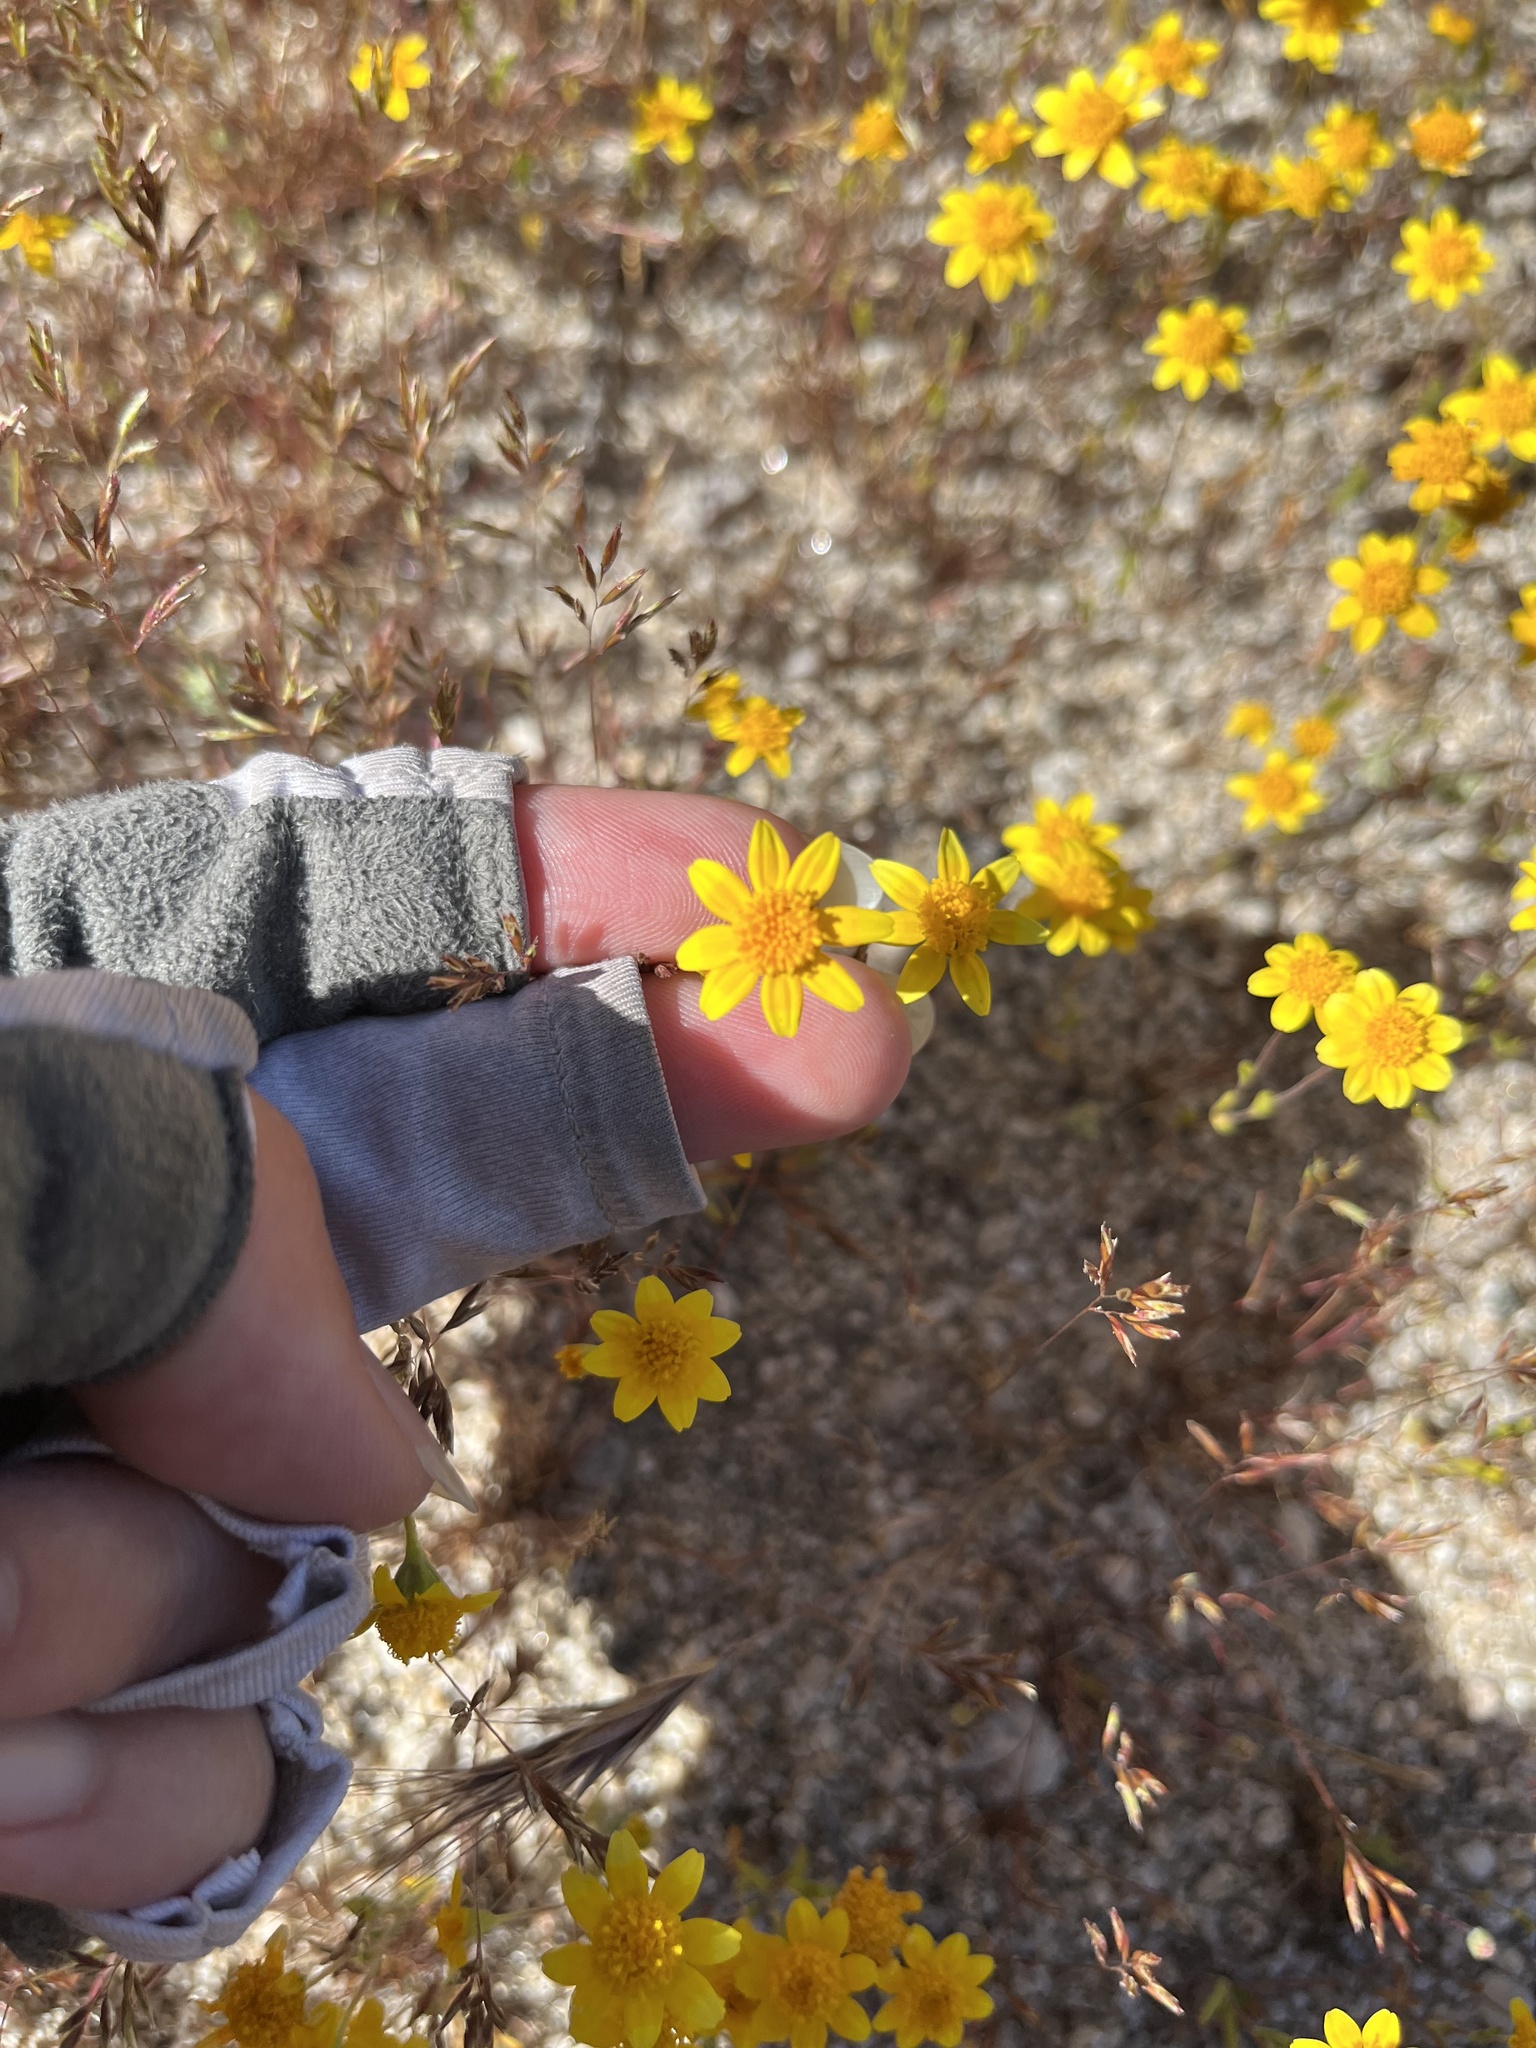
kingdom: Plantae
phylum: Tracheophyta
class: Magnoliopsida
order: Asterales
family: Asteraceae
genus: Lasthenia
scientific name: Lasthenia gracilis
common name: Common goldfields
